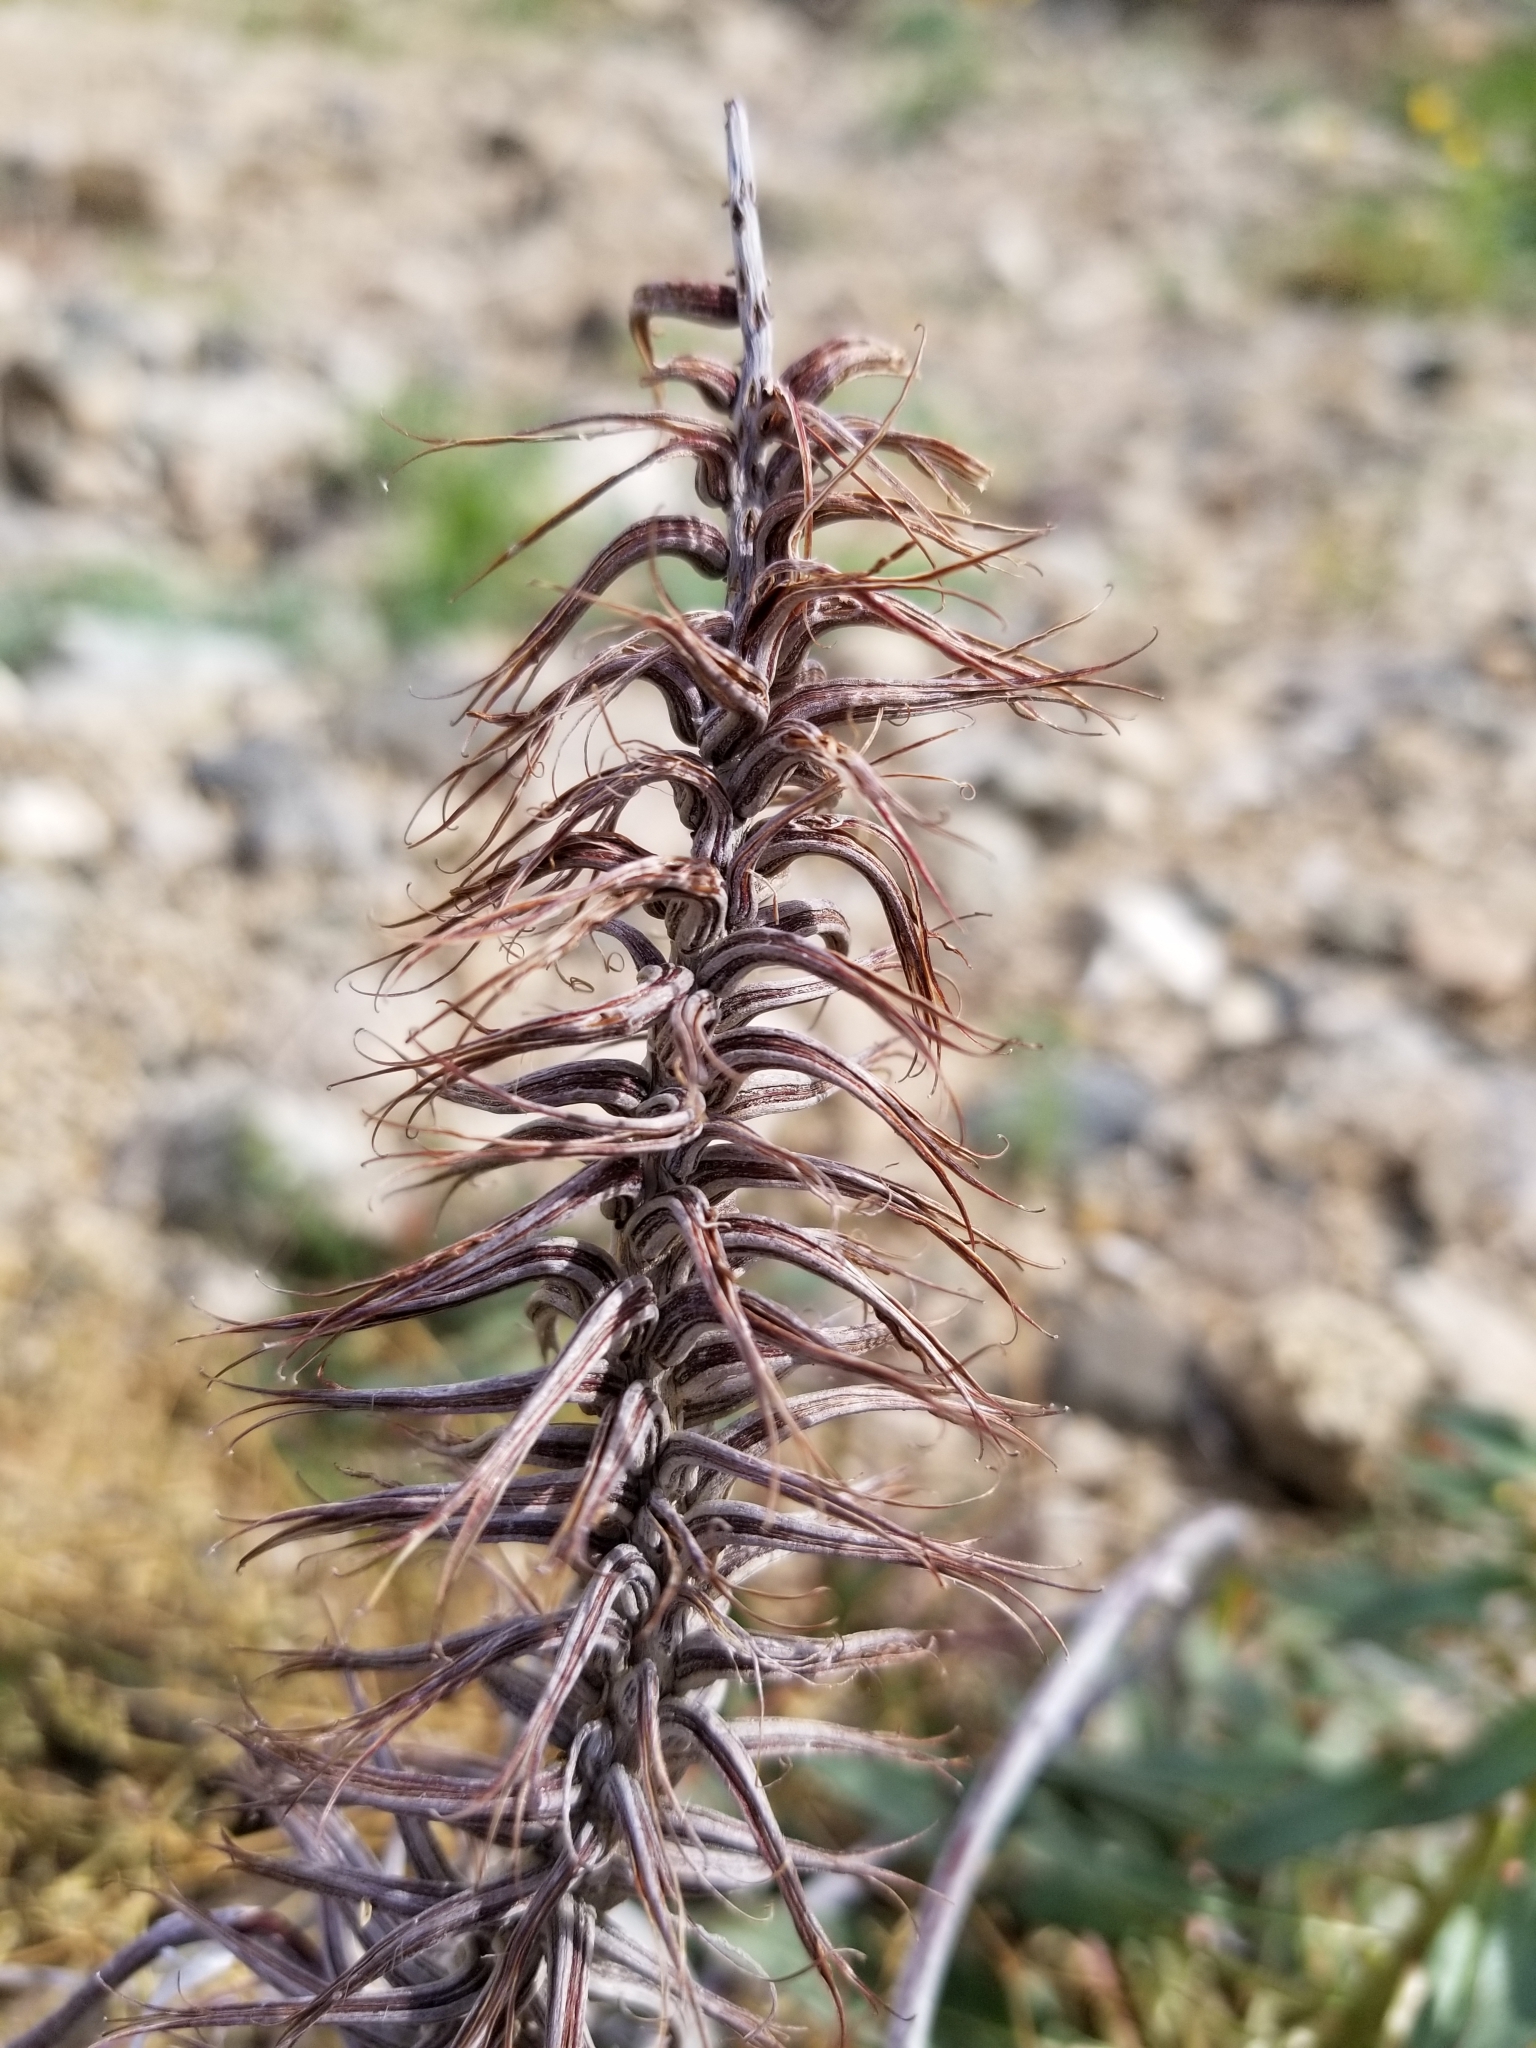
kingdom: Plantae
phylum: Tracheophyta
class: Magnoliopsida
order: Myrtales
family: Onagraceae
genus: Eremothera
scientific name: Eremothera boothii
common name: Booth's evening primrose
